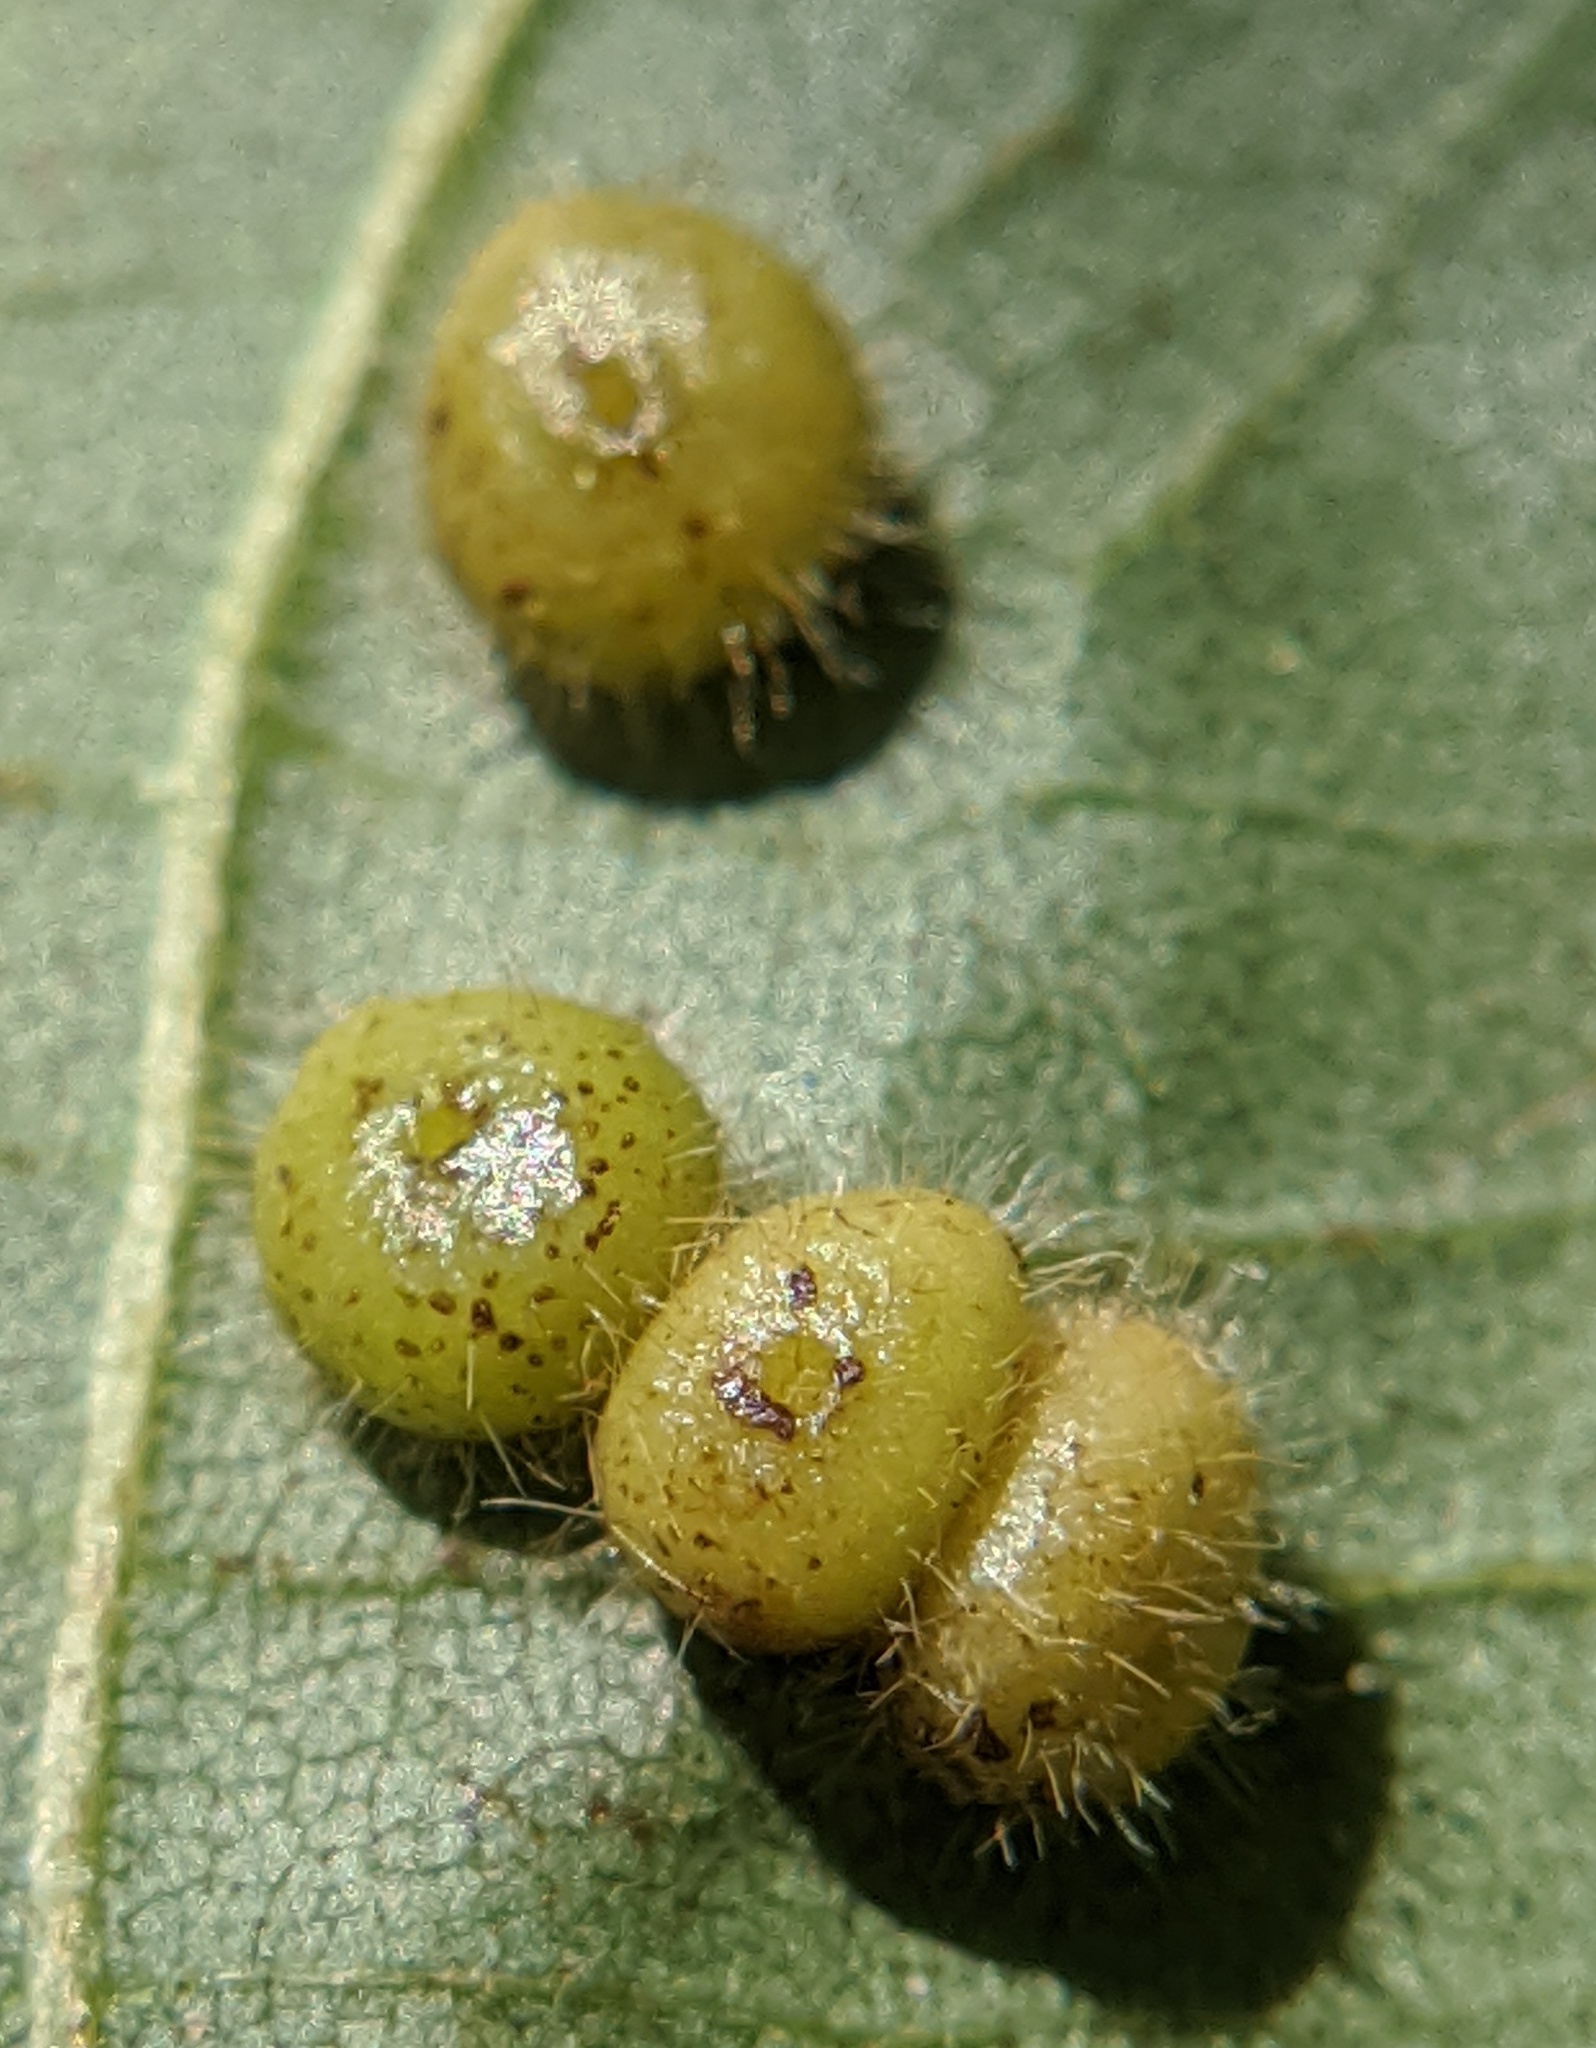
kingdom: Animalia
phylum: Arthropoda
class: Insecta
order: Diptera
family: Cecidomyiidae
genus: Caryomyia
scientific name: Caryomyia thompsoni
